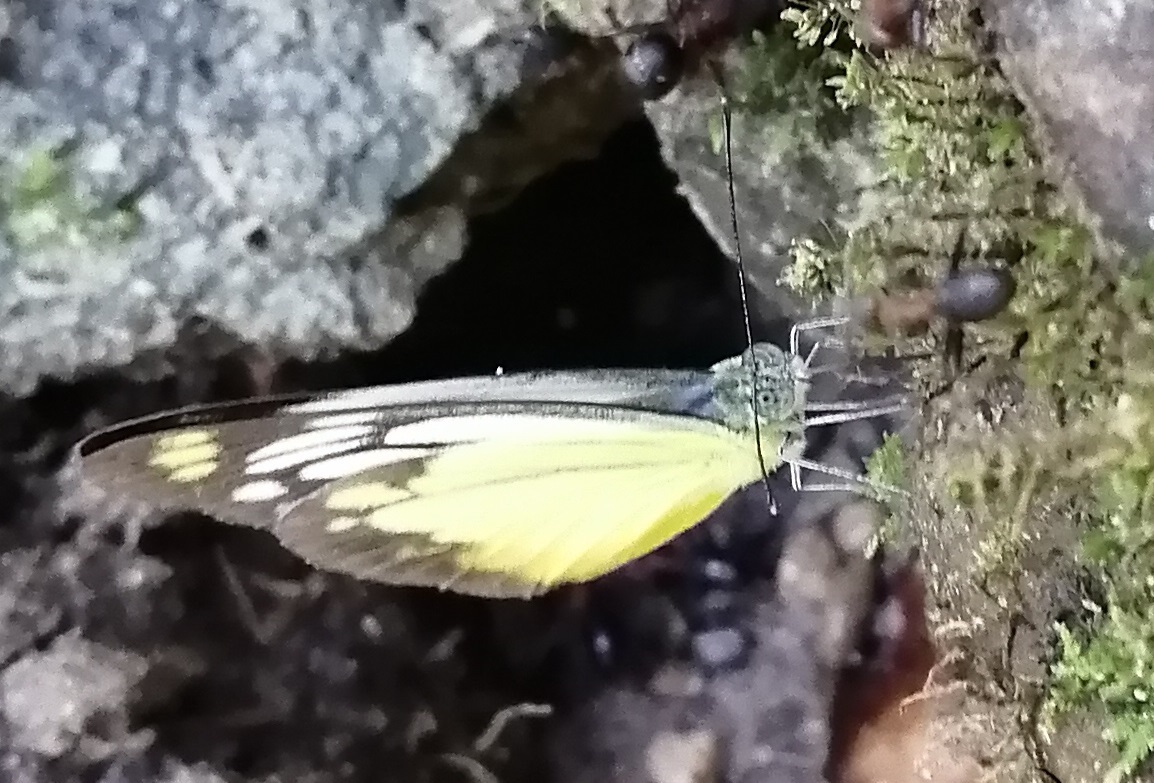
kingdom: Animalia
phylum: Arthropoda
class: Insecta
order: Lepidoptera
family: Pieridae
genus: Cepora
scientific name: Cepora iudith
